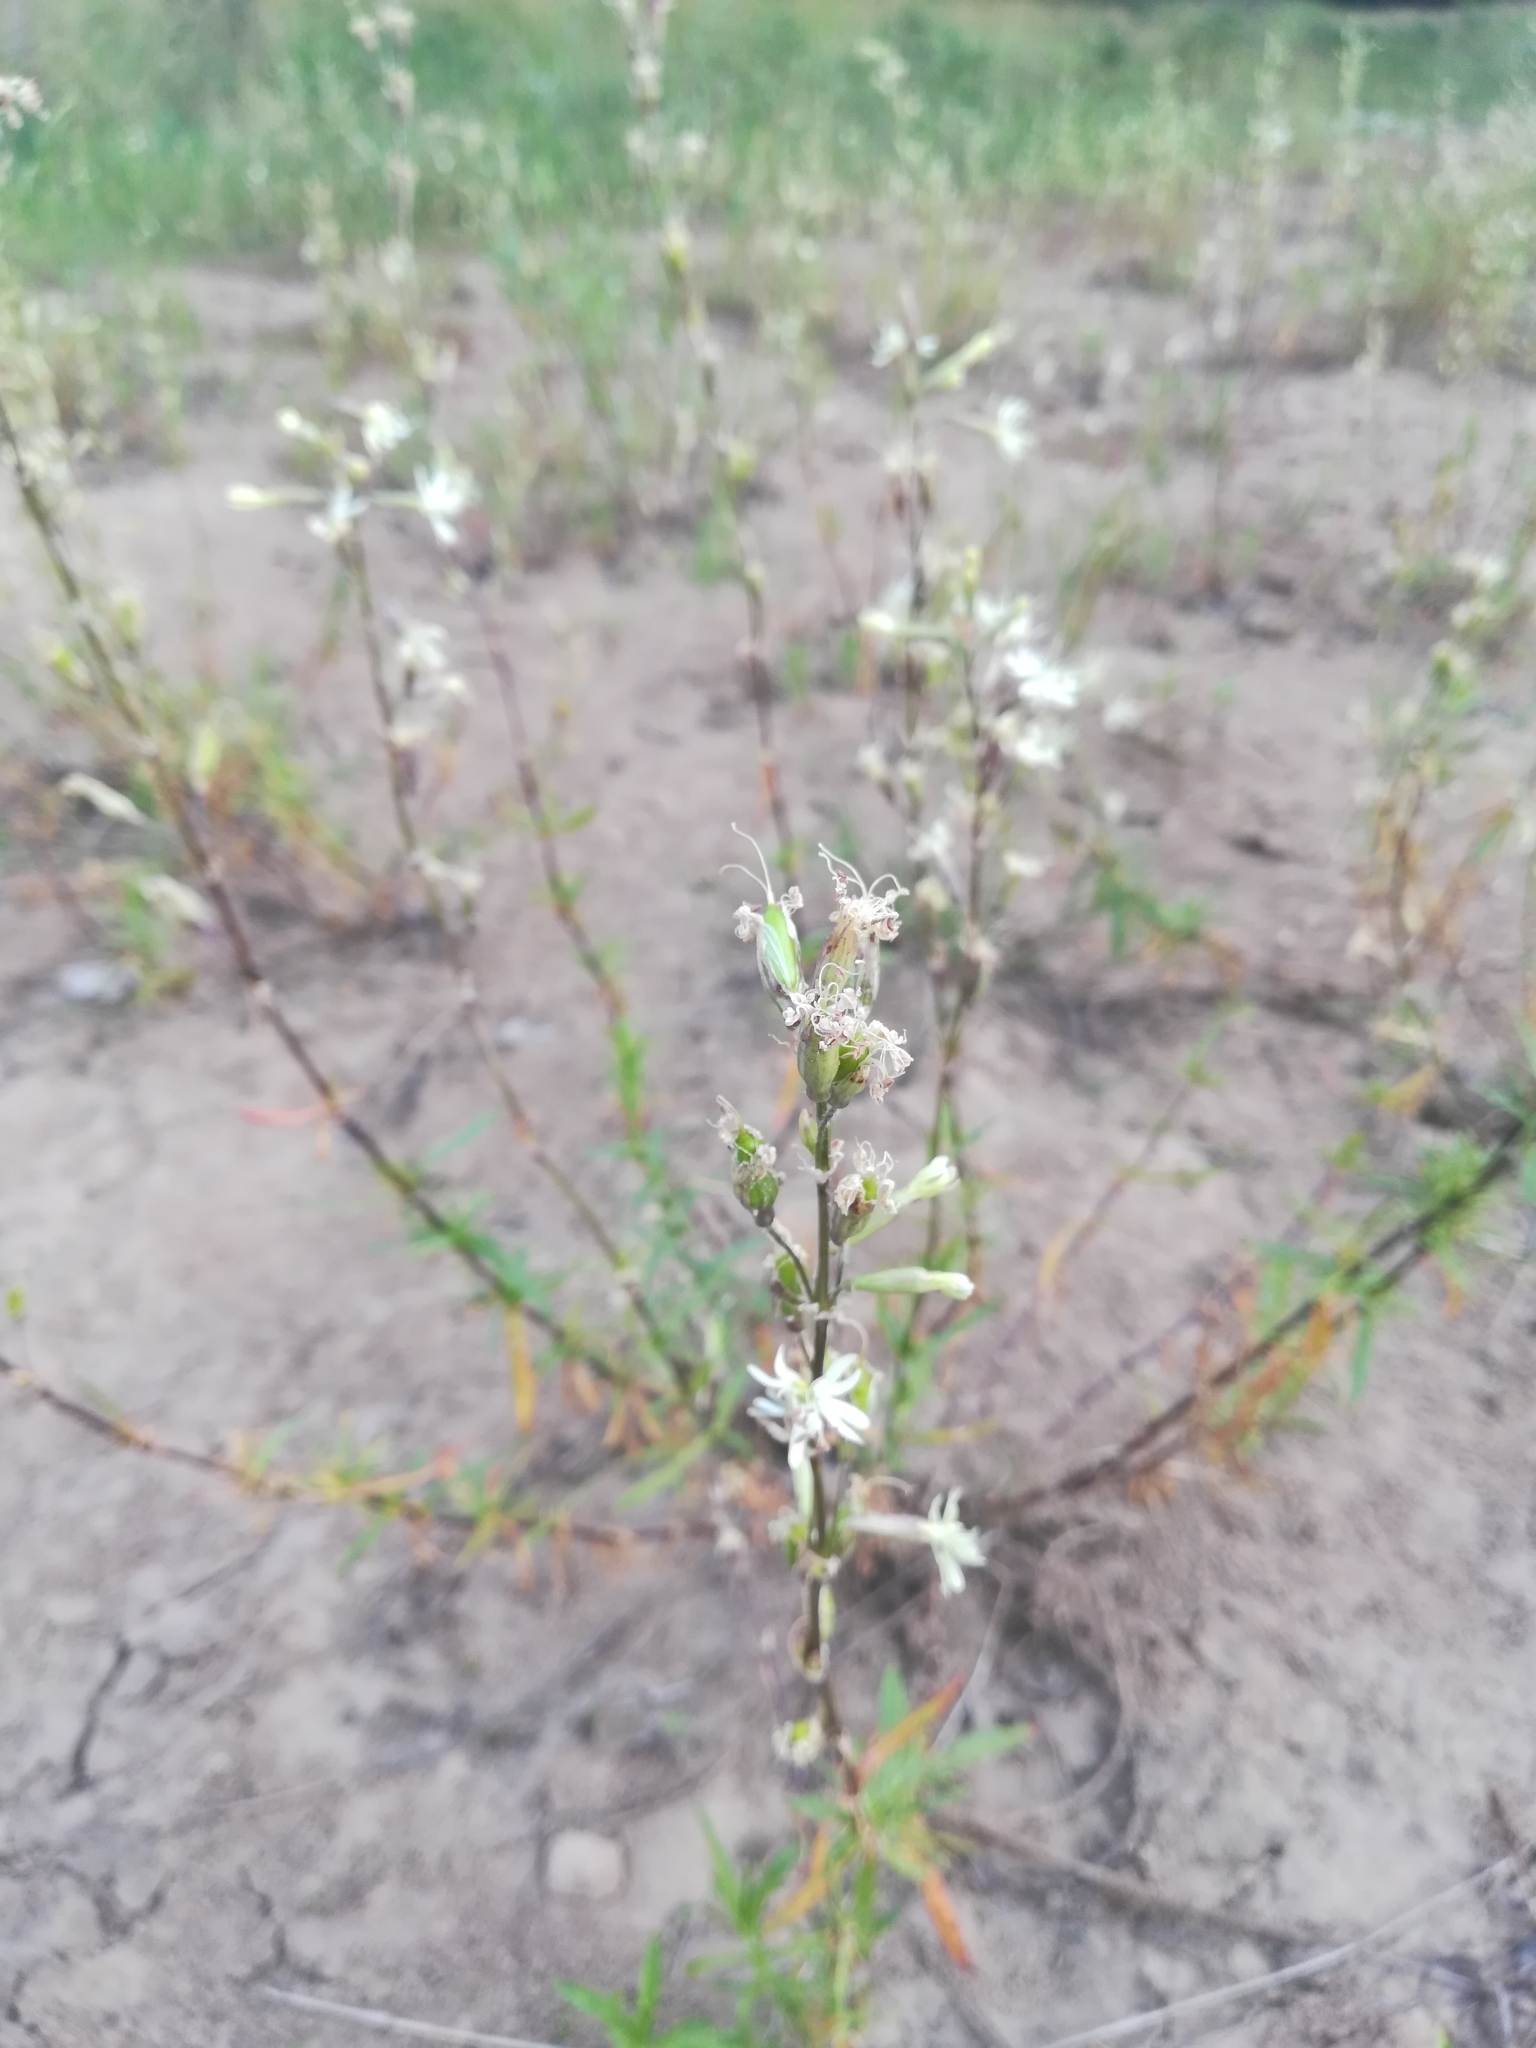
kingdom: Plantae
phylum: Tracheophyta
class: Magnoliopsida
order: Caryophyllales
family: Caryophyllaceae
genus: Silene
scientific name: Silene tatarica
